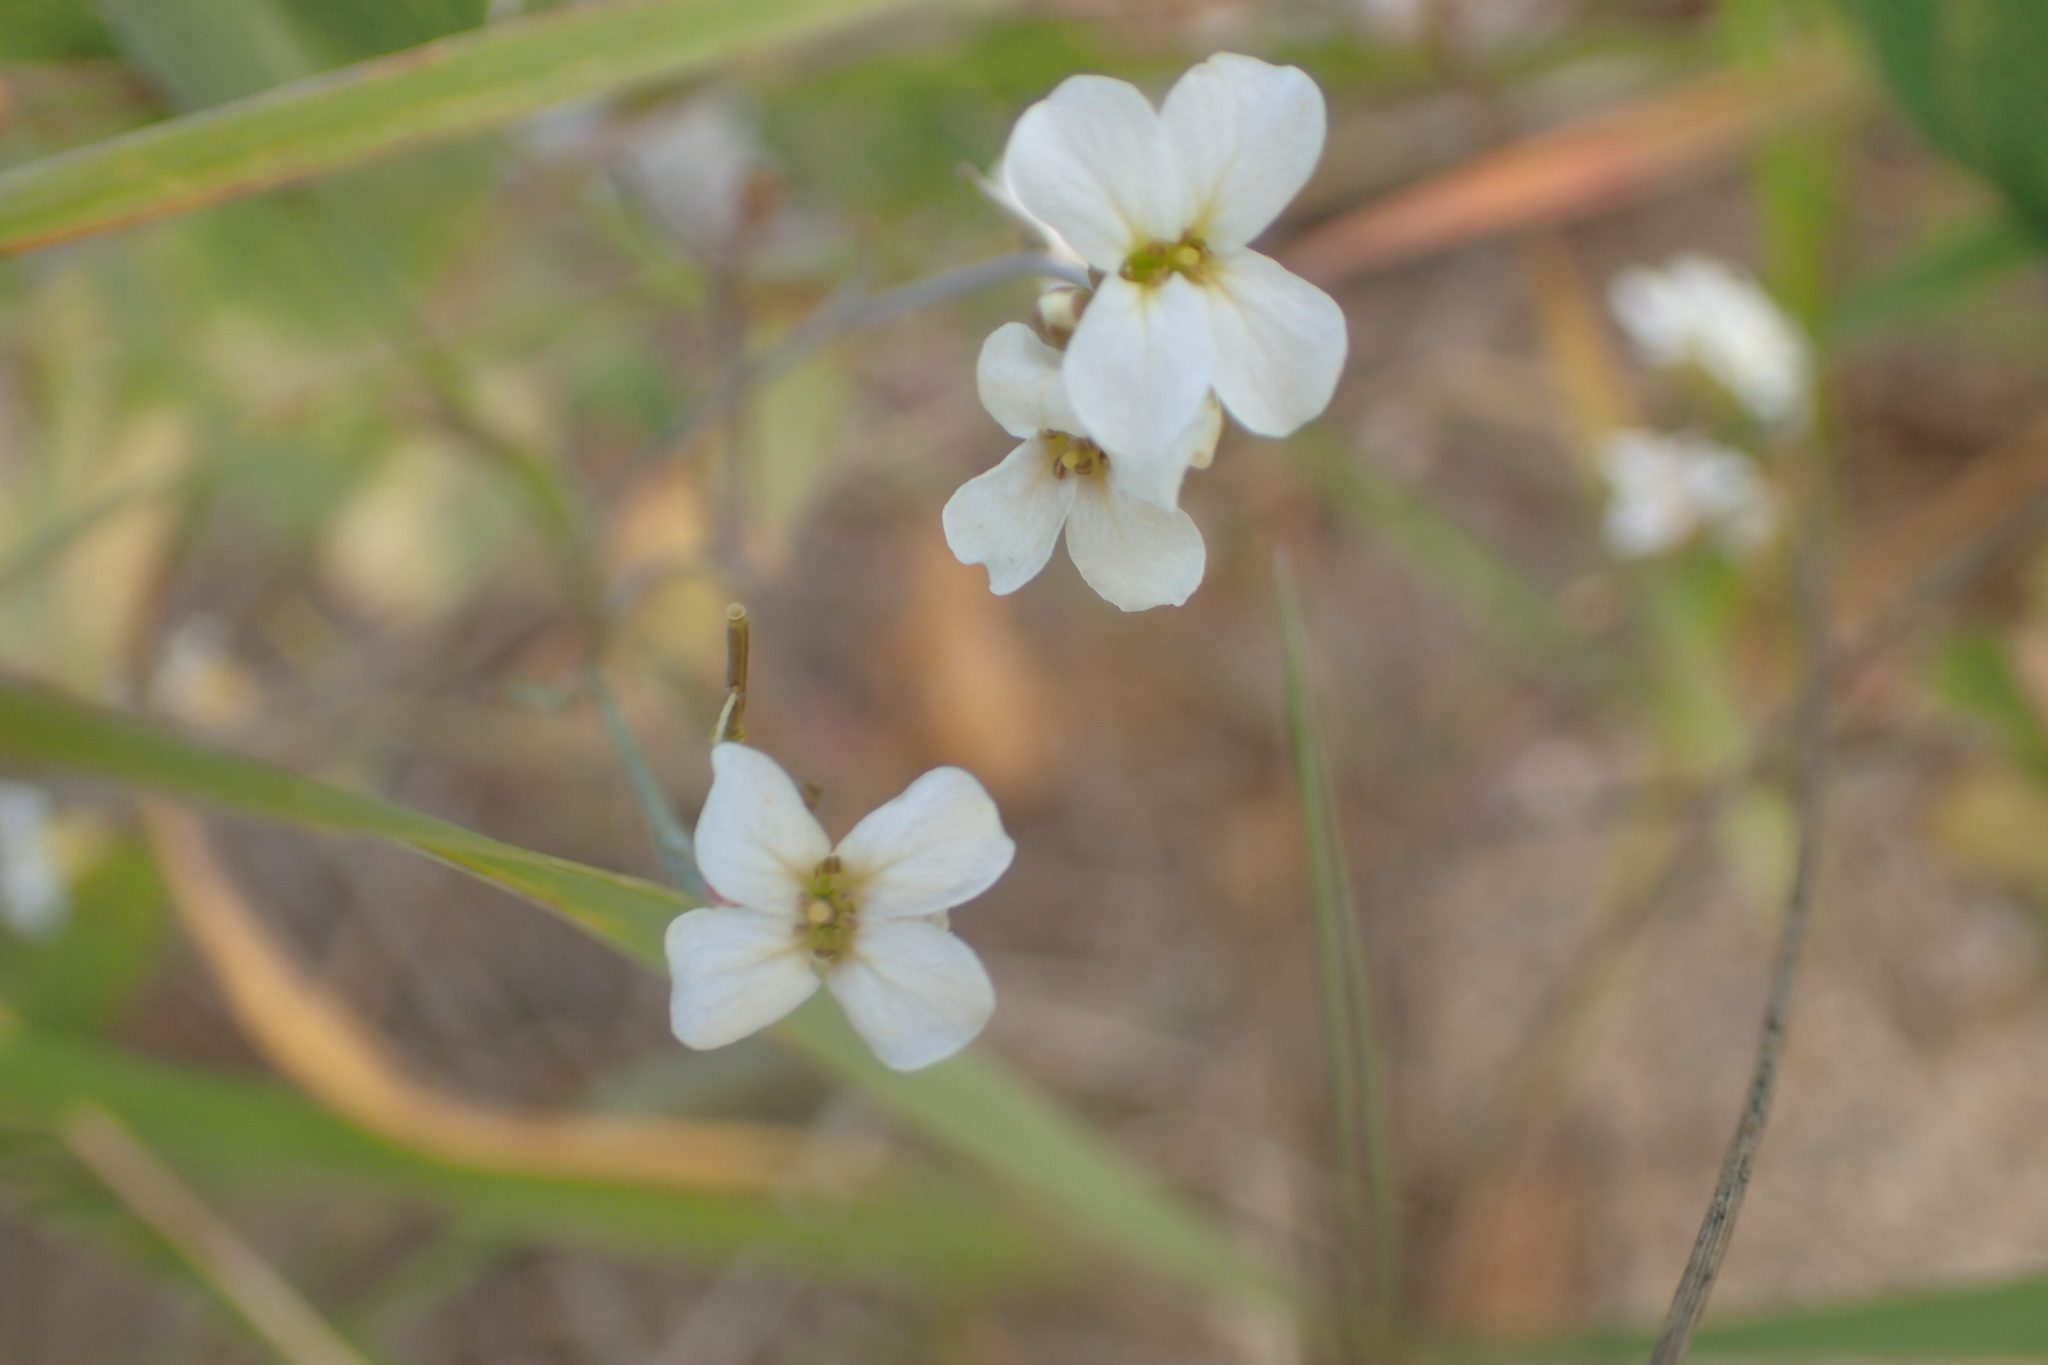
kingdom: Plantae
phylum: Tracheophyta
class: Magnoliopsida
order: Brassicales
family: Brassicaceae
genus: Arabidopsis
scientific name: Arabidopsis lyrata
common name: Lyrate rockcress
